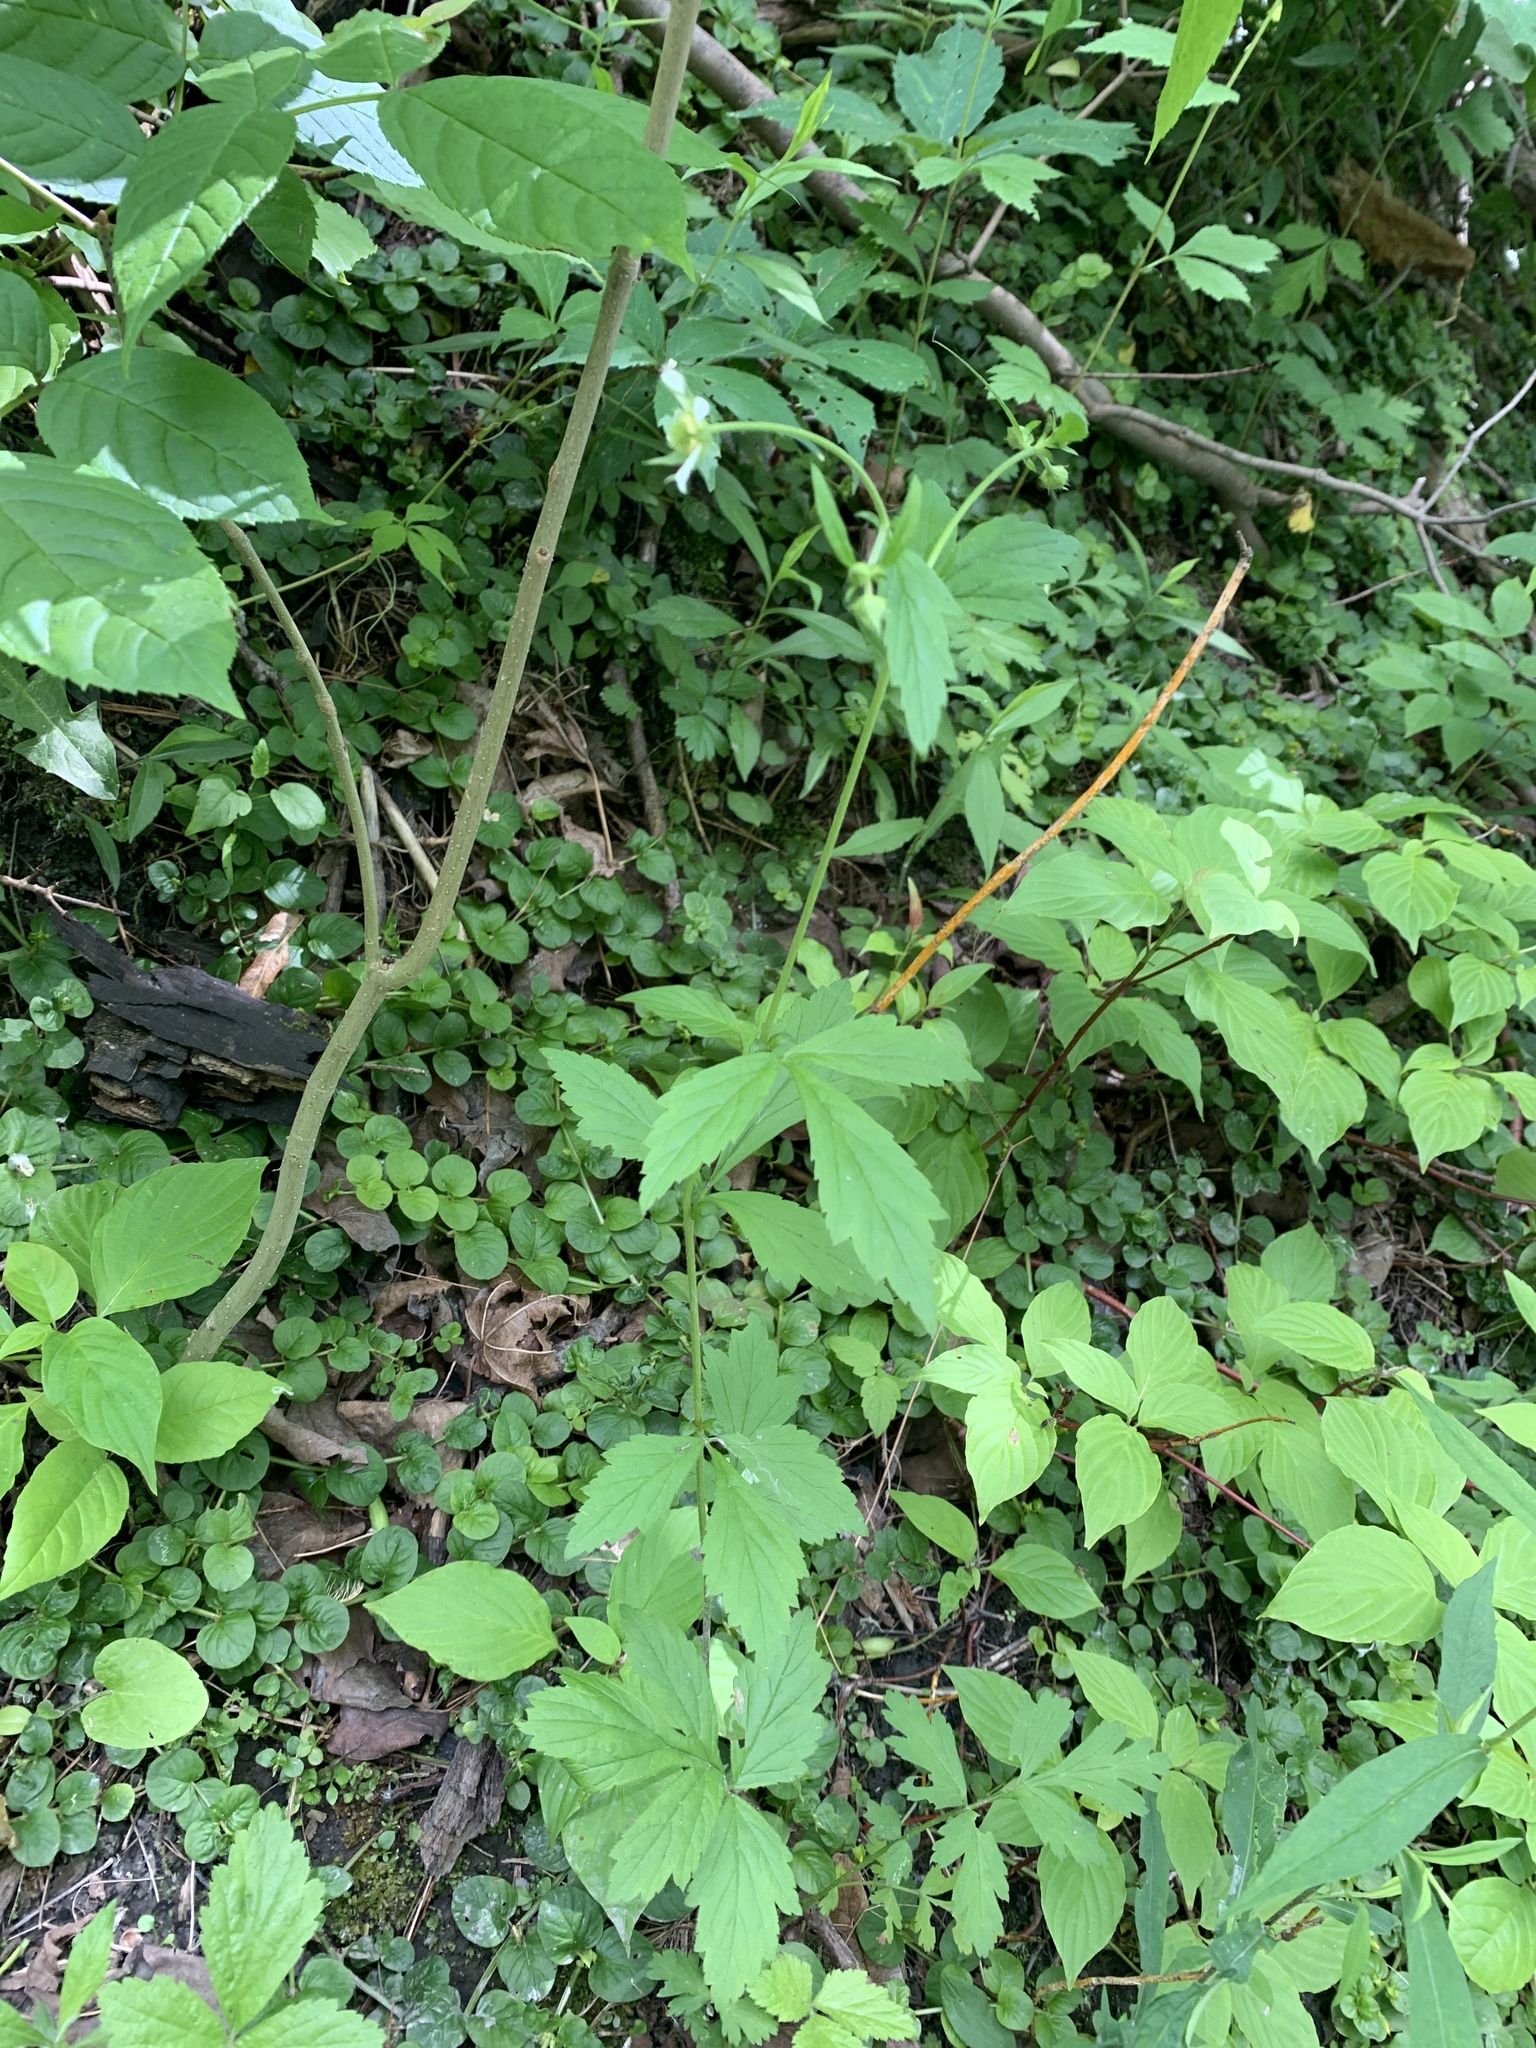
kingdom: Plantae
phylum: Tracheophyta
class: Magnoliopsida
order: Rosales
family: Rosaceae
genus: Geum
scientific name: Geum canadense
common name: White avens
